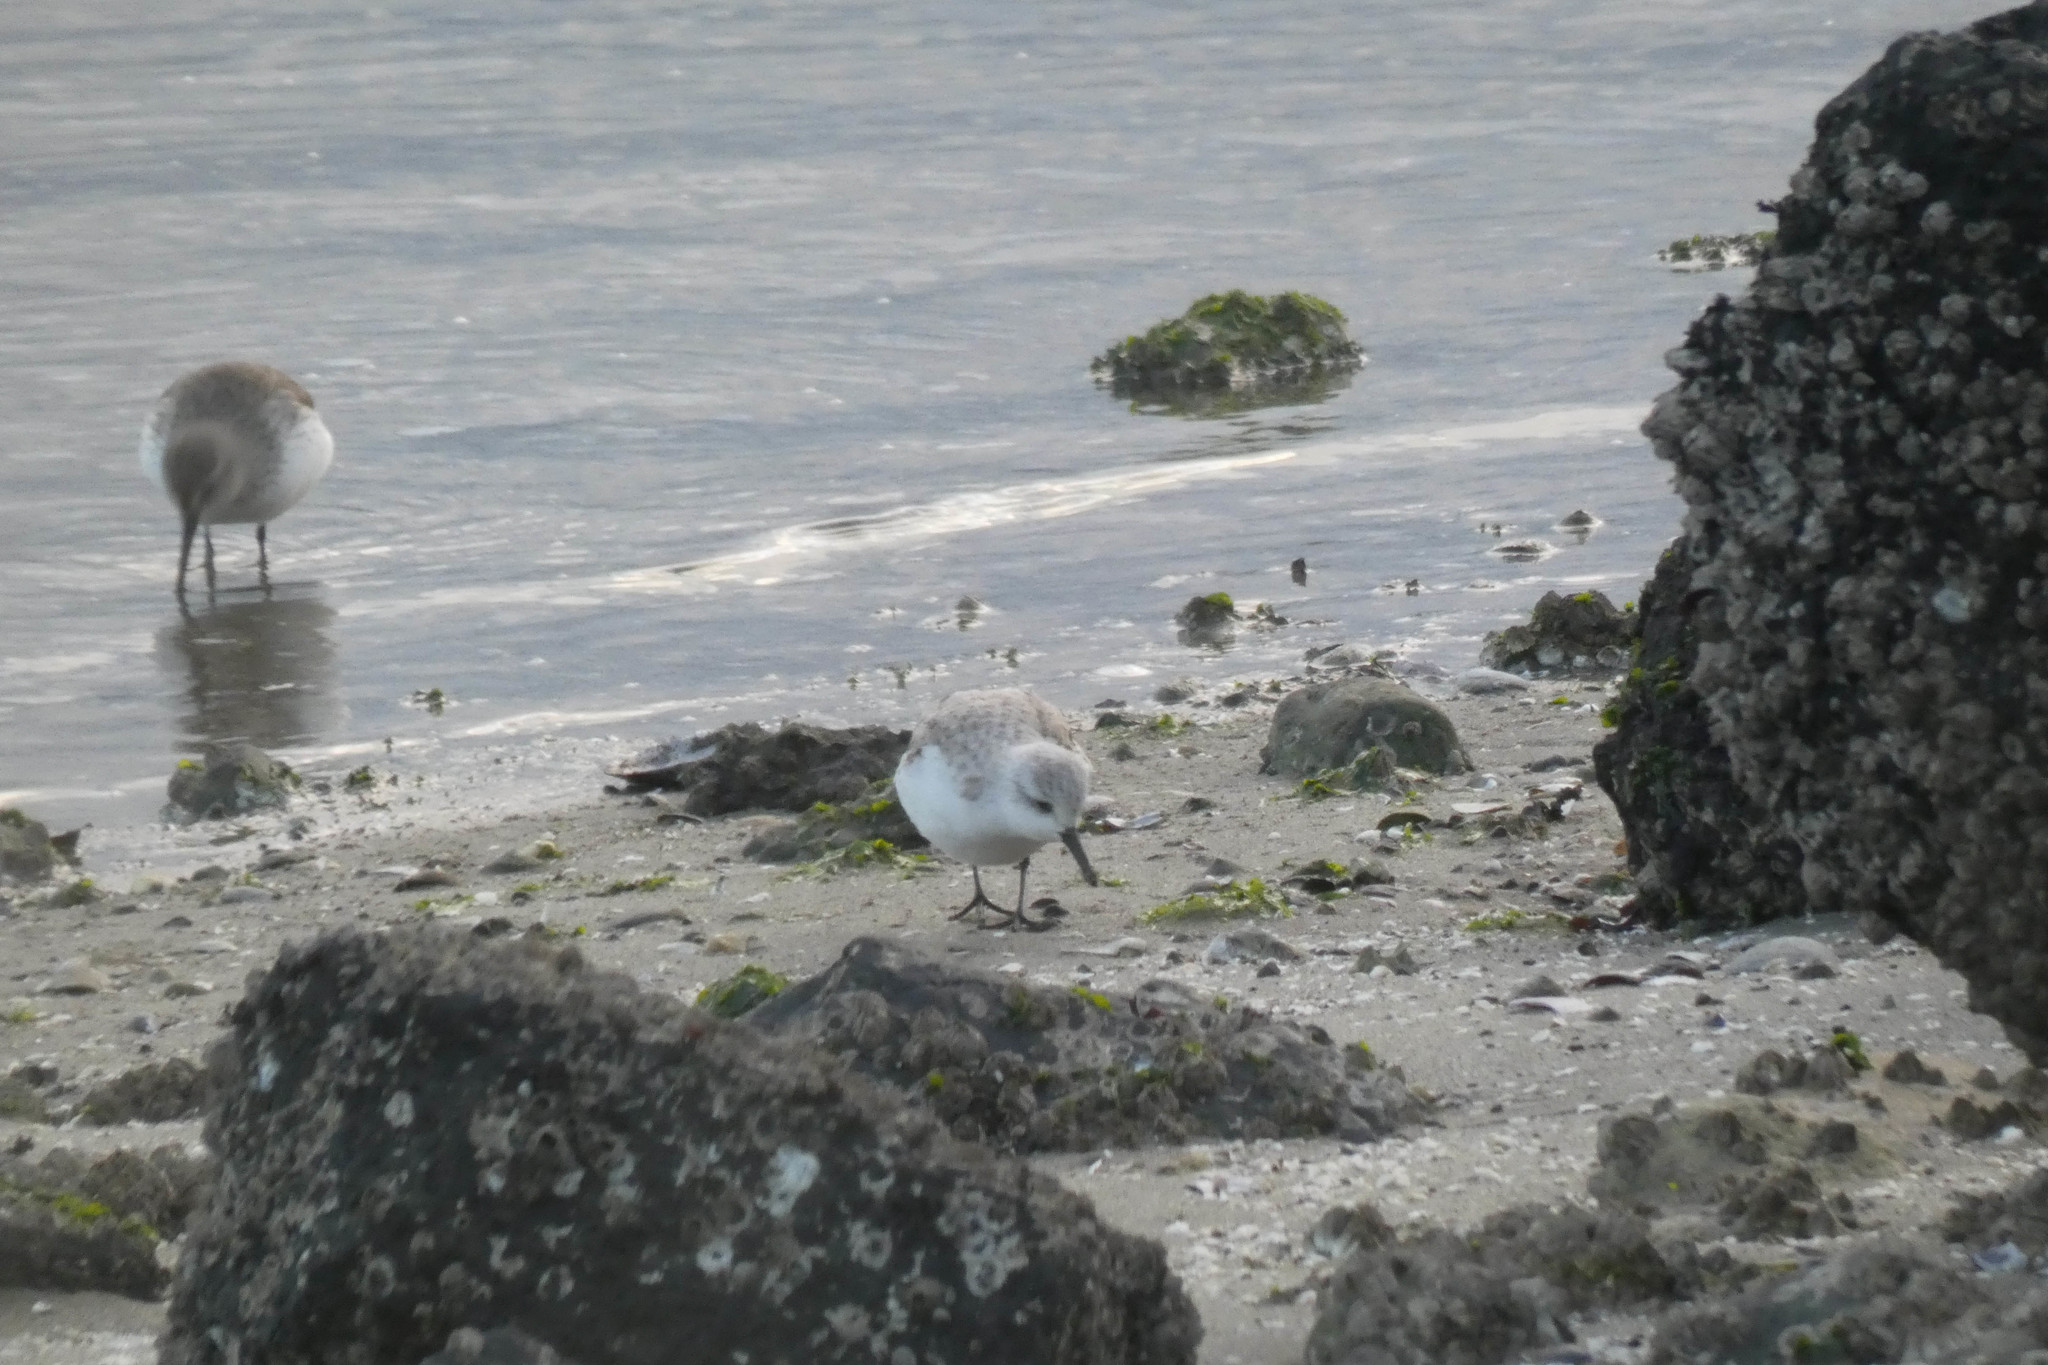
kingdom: Animalia
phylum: Chordata
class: Aves
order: Charadriiformes
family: Scolopacidae
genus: Calidris
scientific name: Calidris alba
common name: Sanderling
